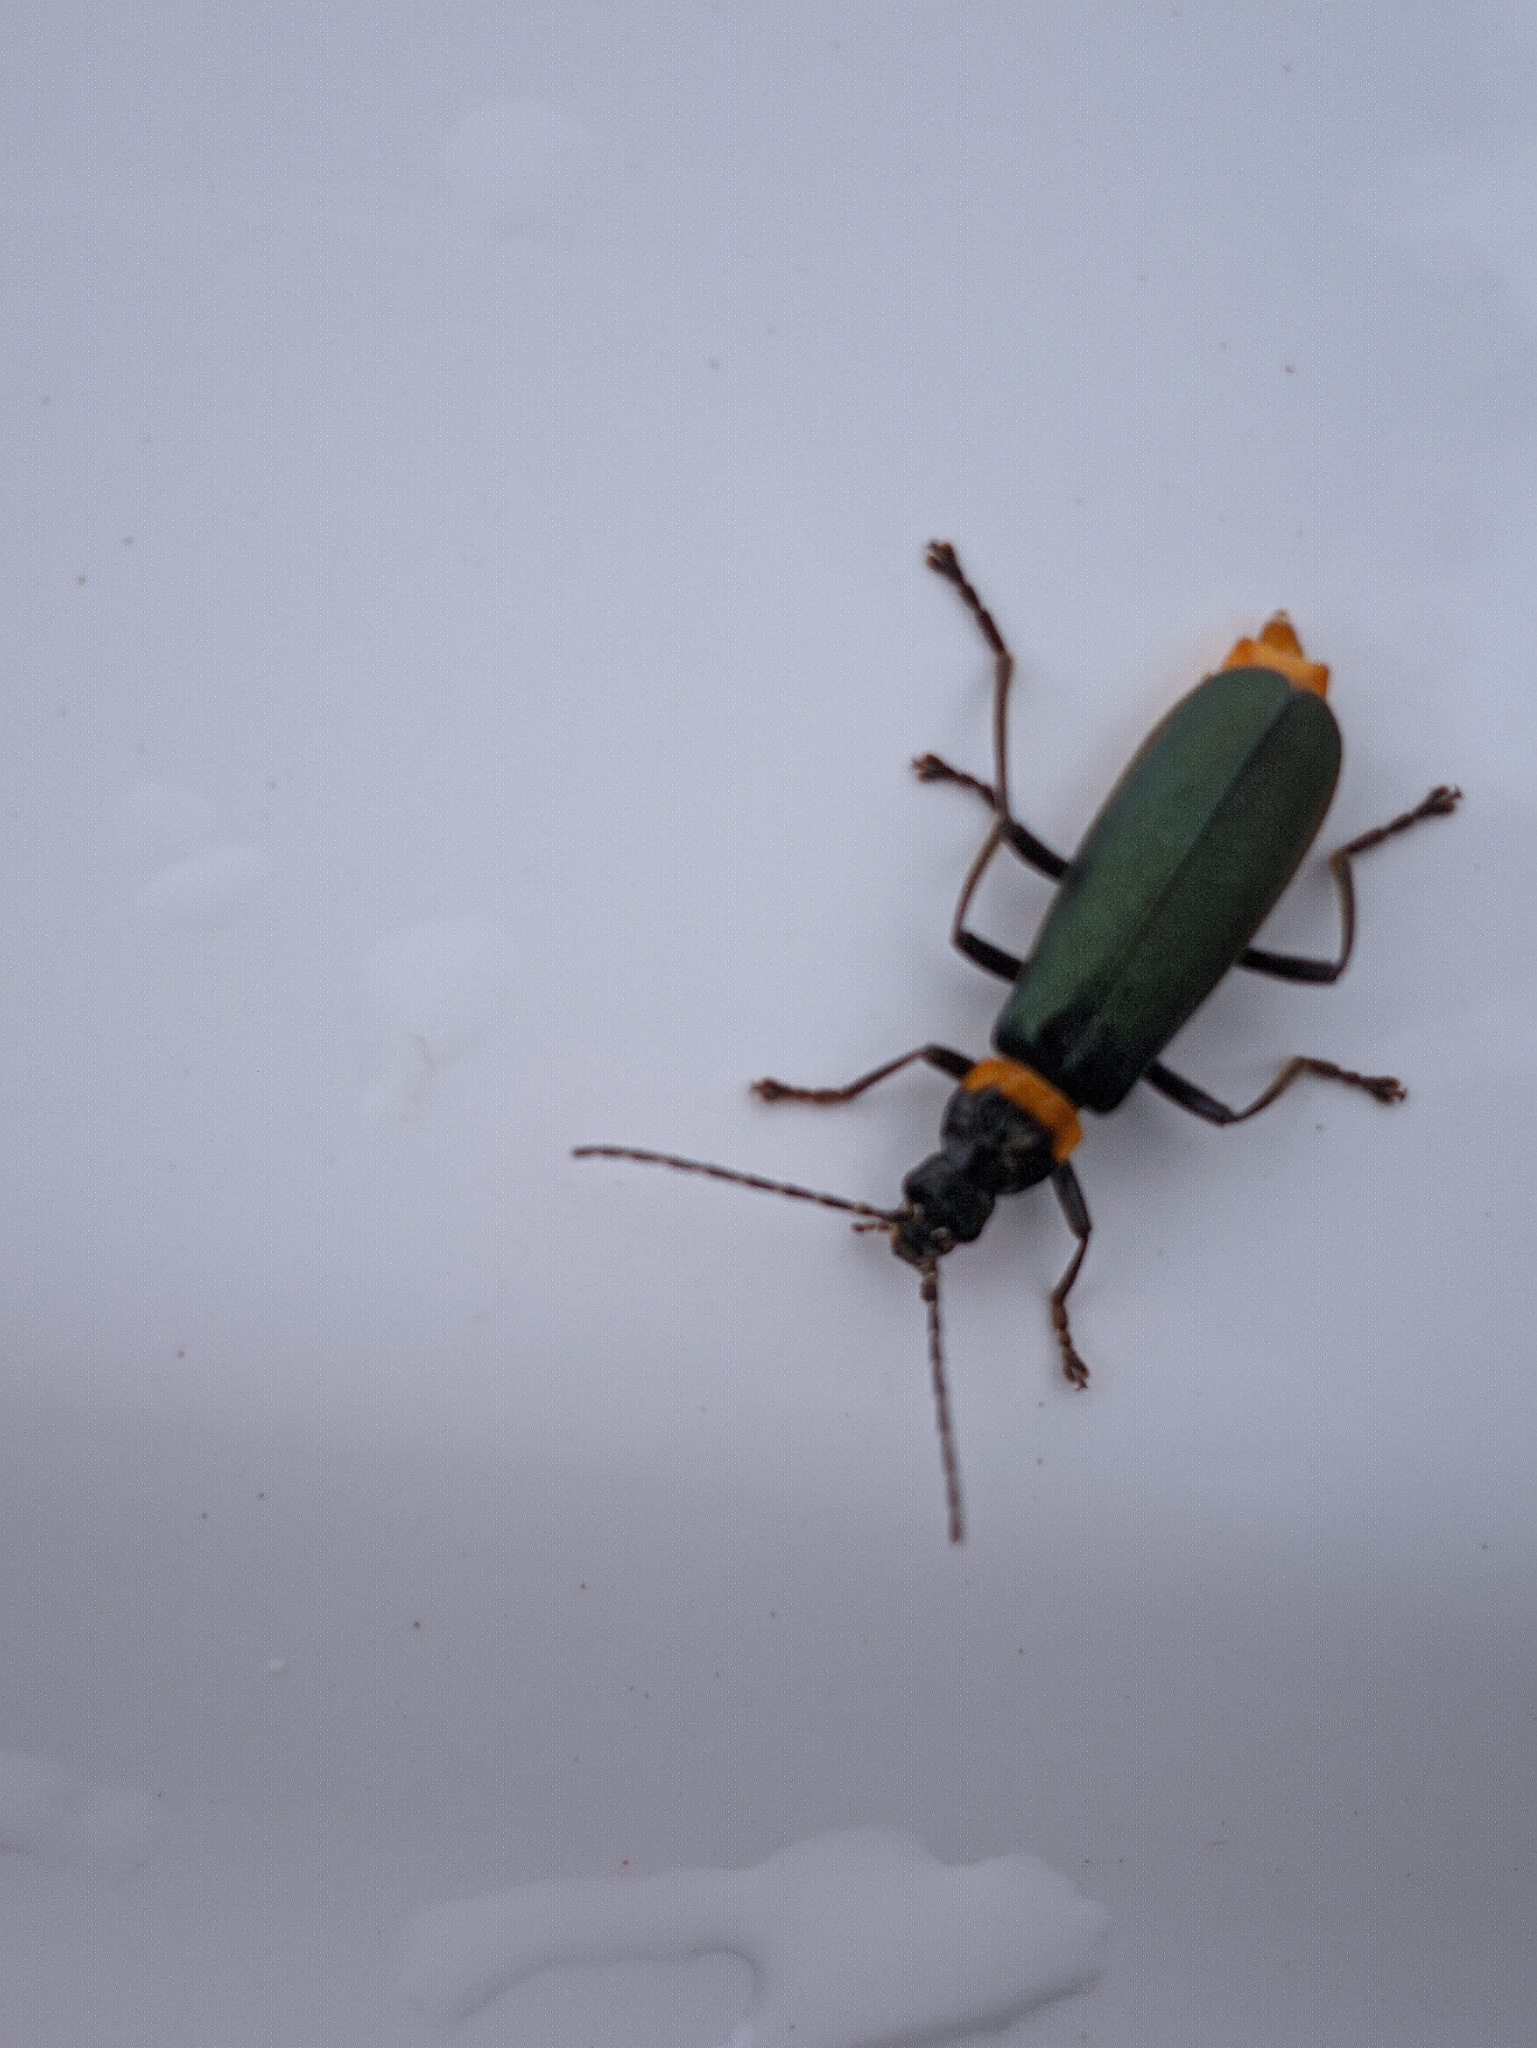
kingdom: Animalia
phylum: Arthropoda
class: Insecta
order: Coleoptera
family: Cantharidae
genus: Chauliognathus
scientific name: Chauliognathus
